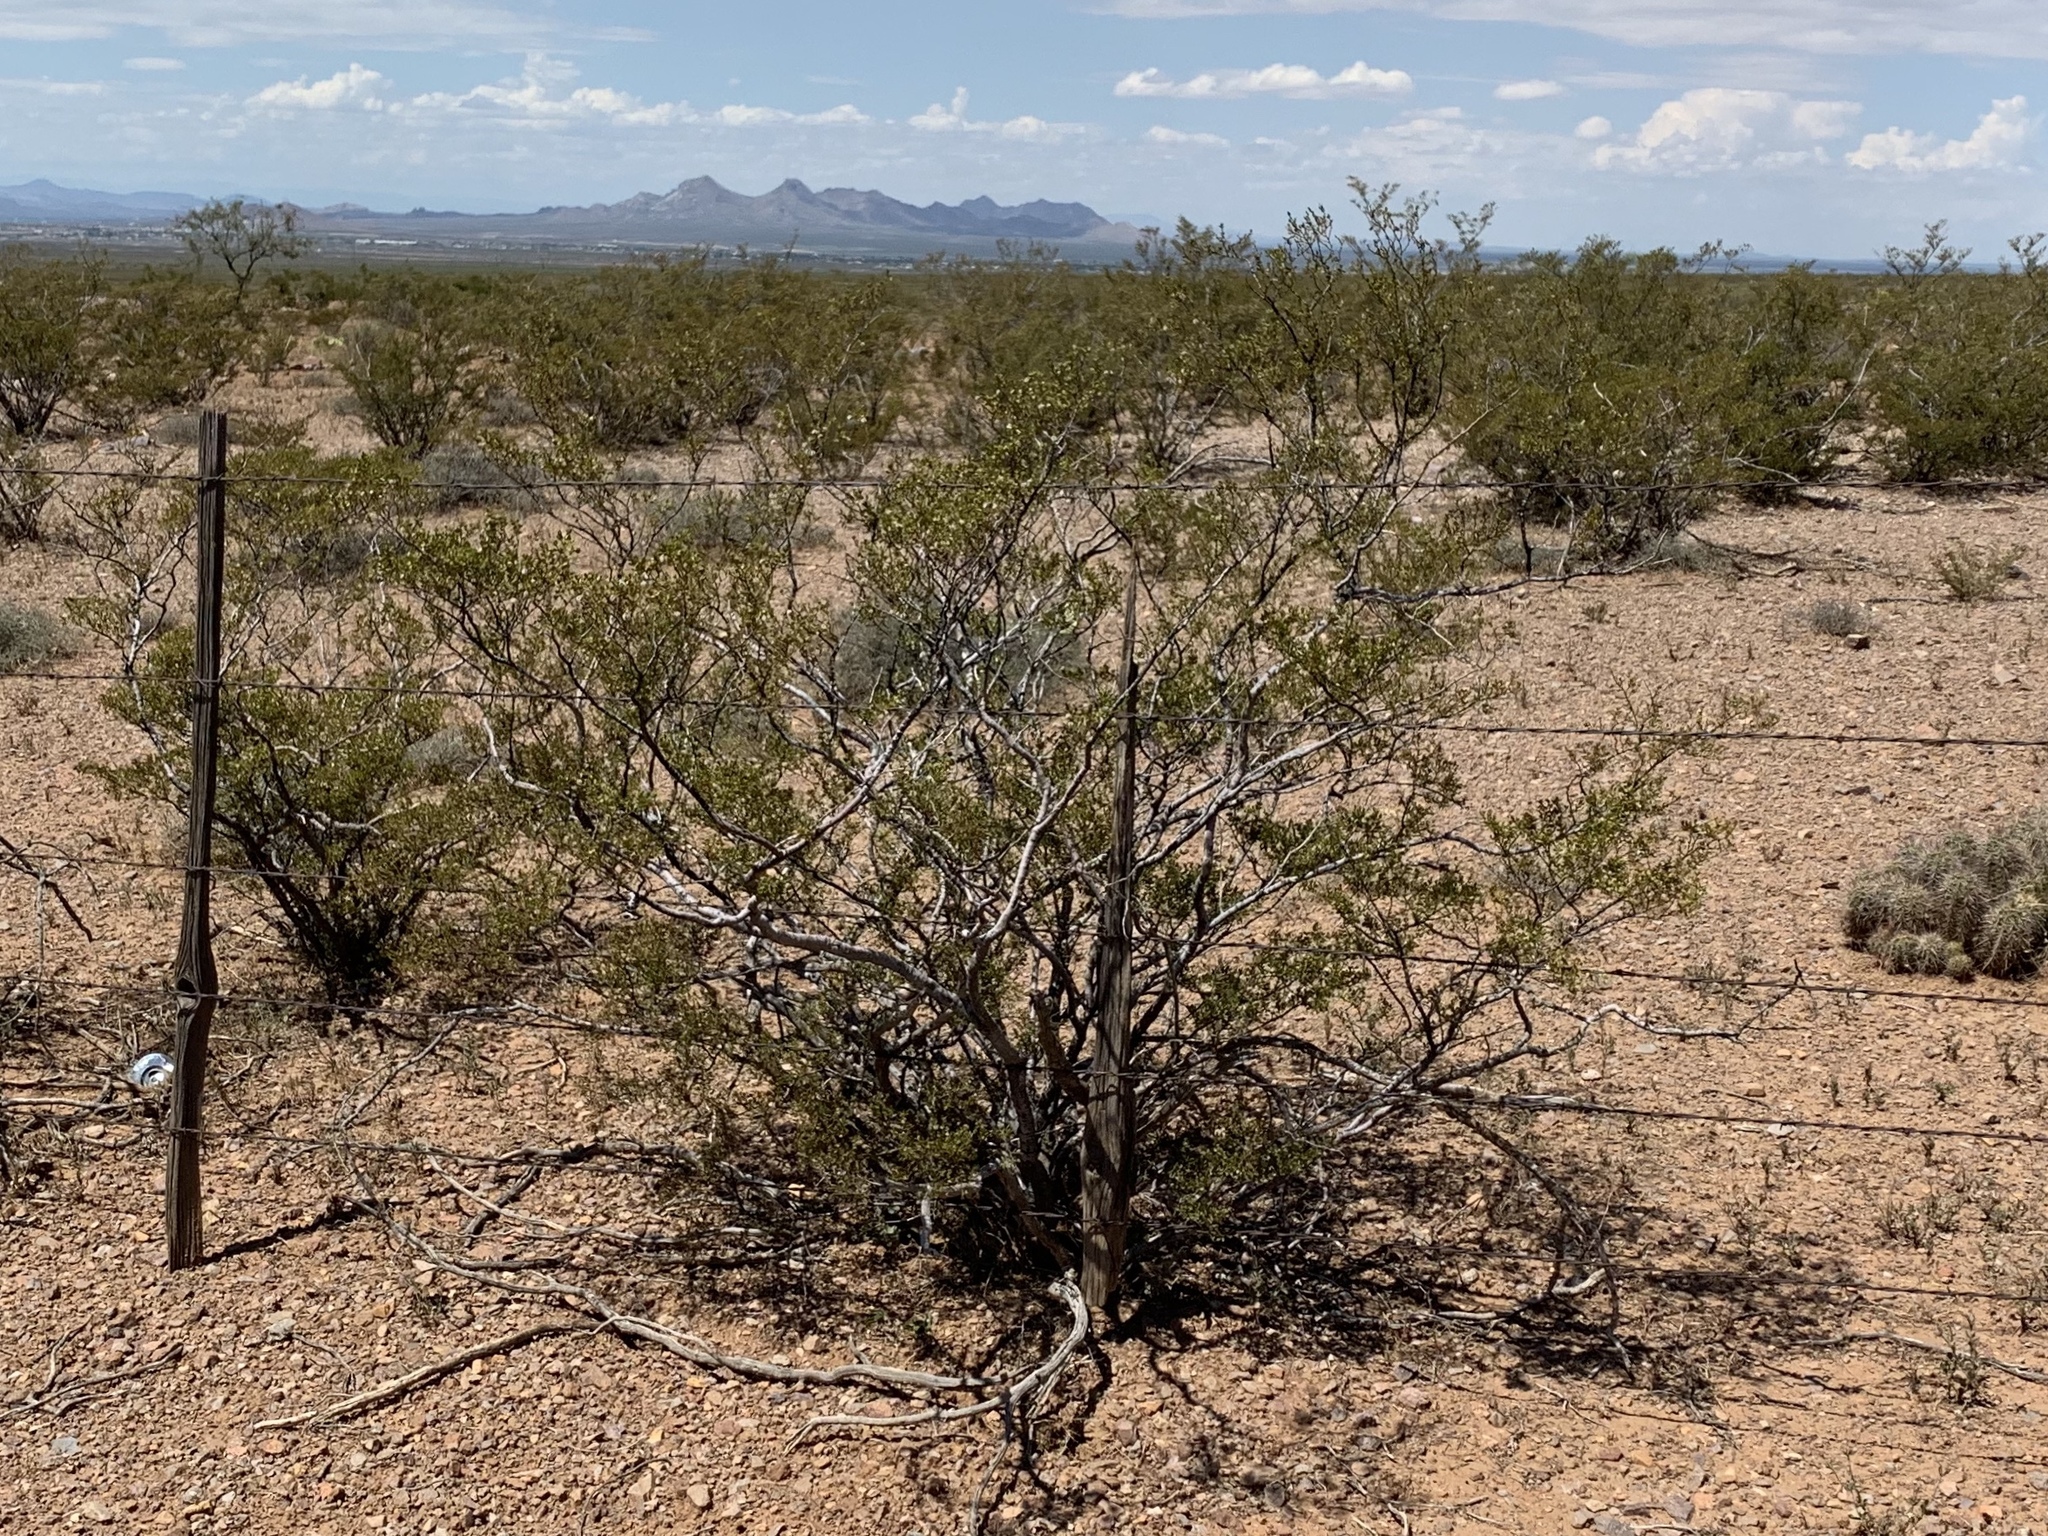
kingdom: Plantae
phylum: Tracheophyta
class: Magnoliopsida
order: Zygophyllales
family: Zygophyllaceae
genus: Larrea
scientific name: Larrea tridentata
